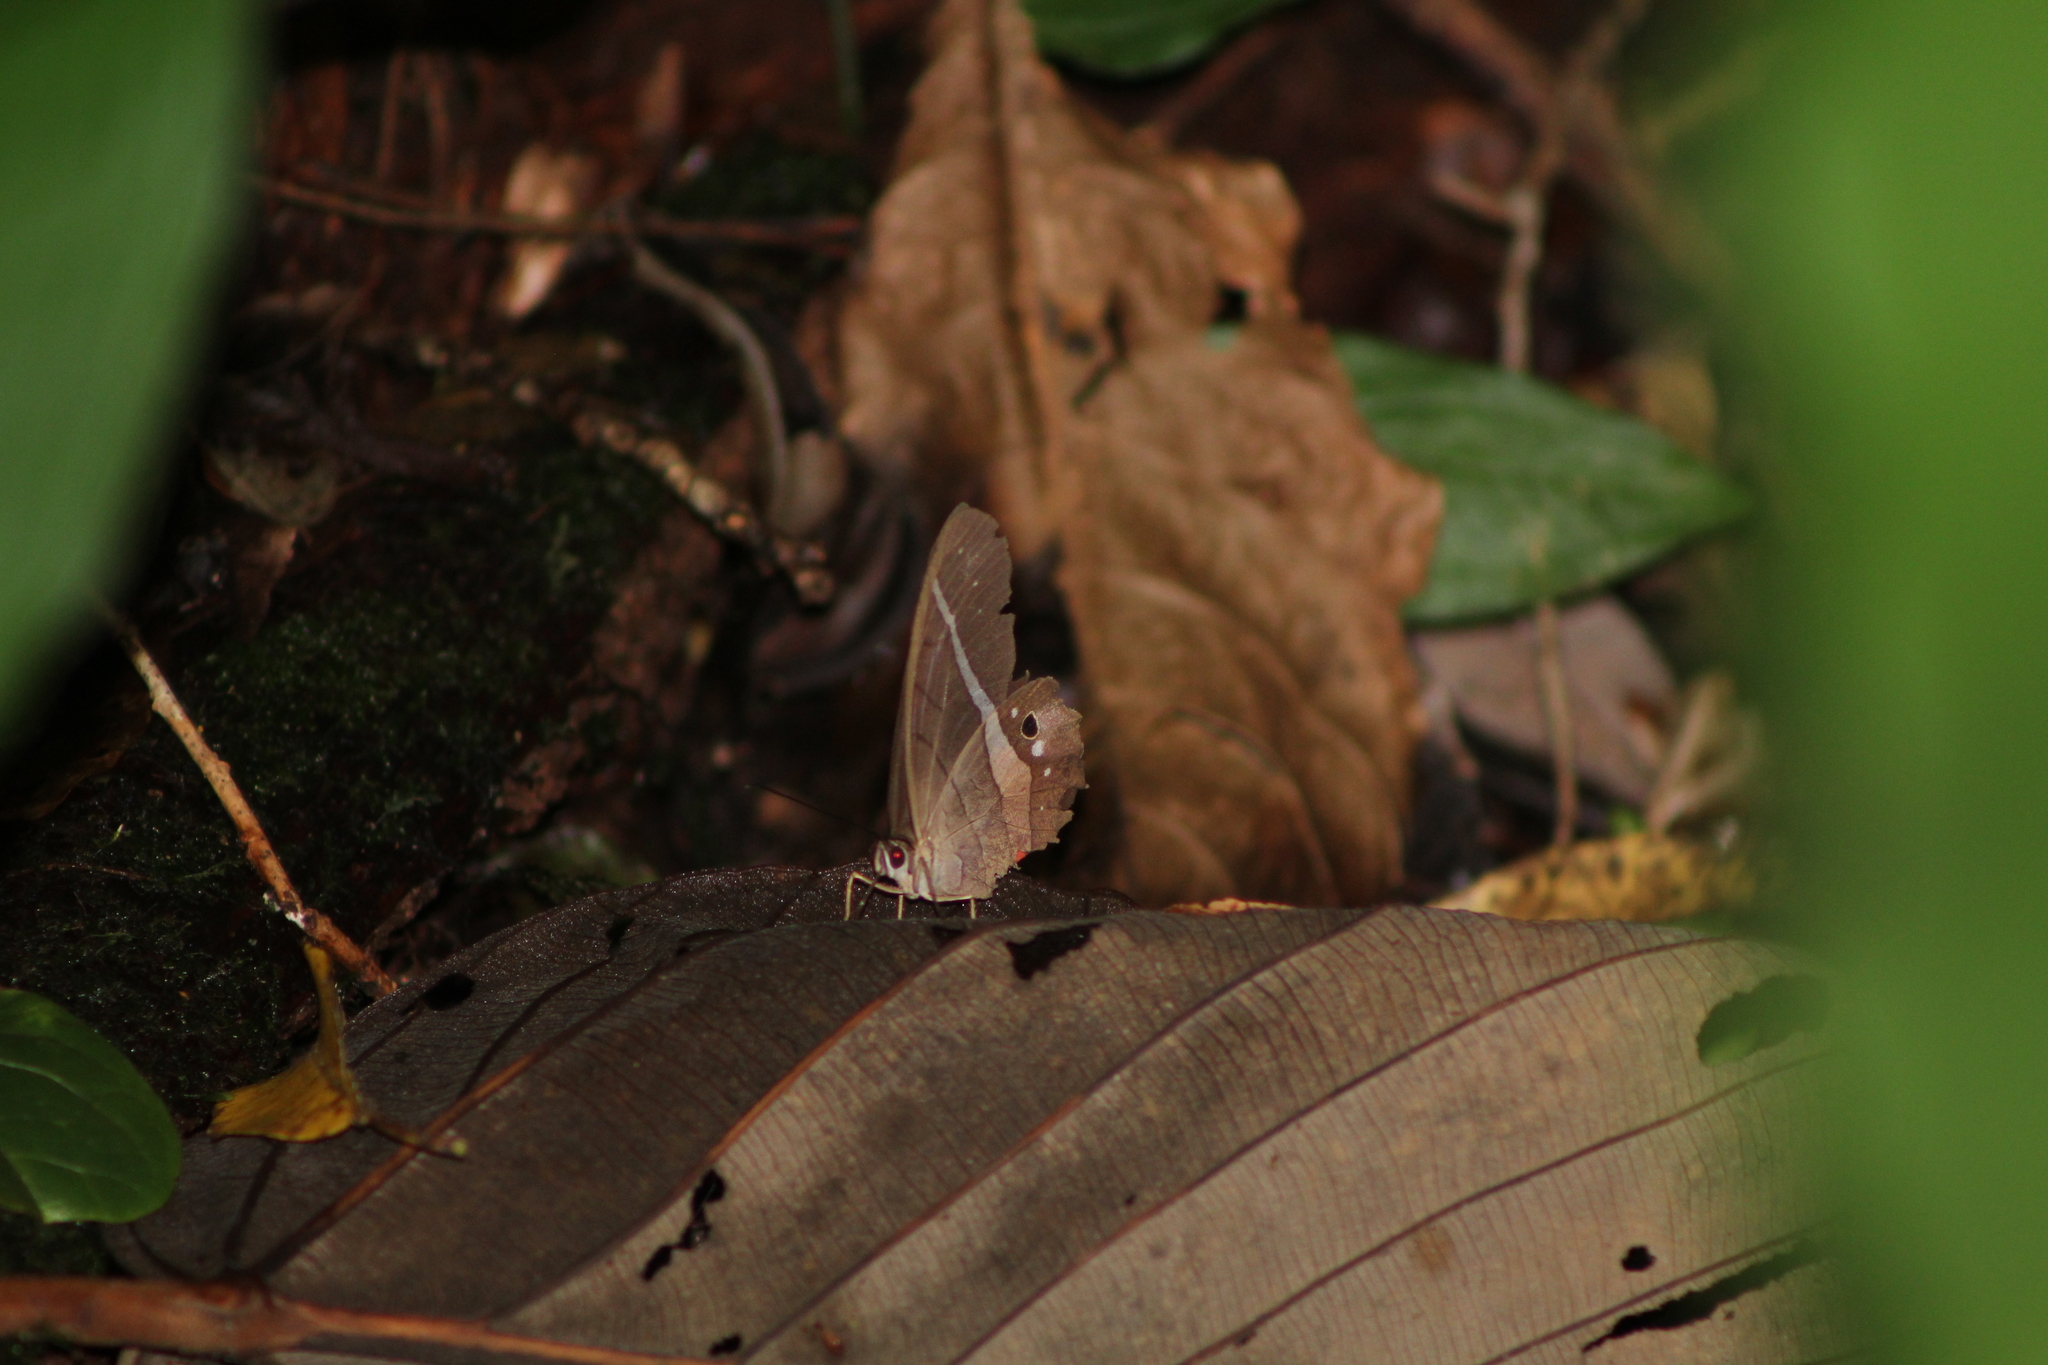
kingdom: Animalia
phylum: Arthropoda
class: Insecta
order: Lepidoptera
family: Nymphalidae
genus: Pierella
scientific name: Pierella helvina
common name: Red-washed satyr
